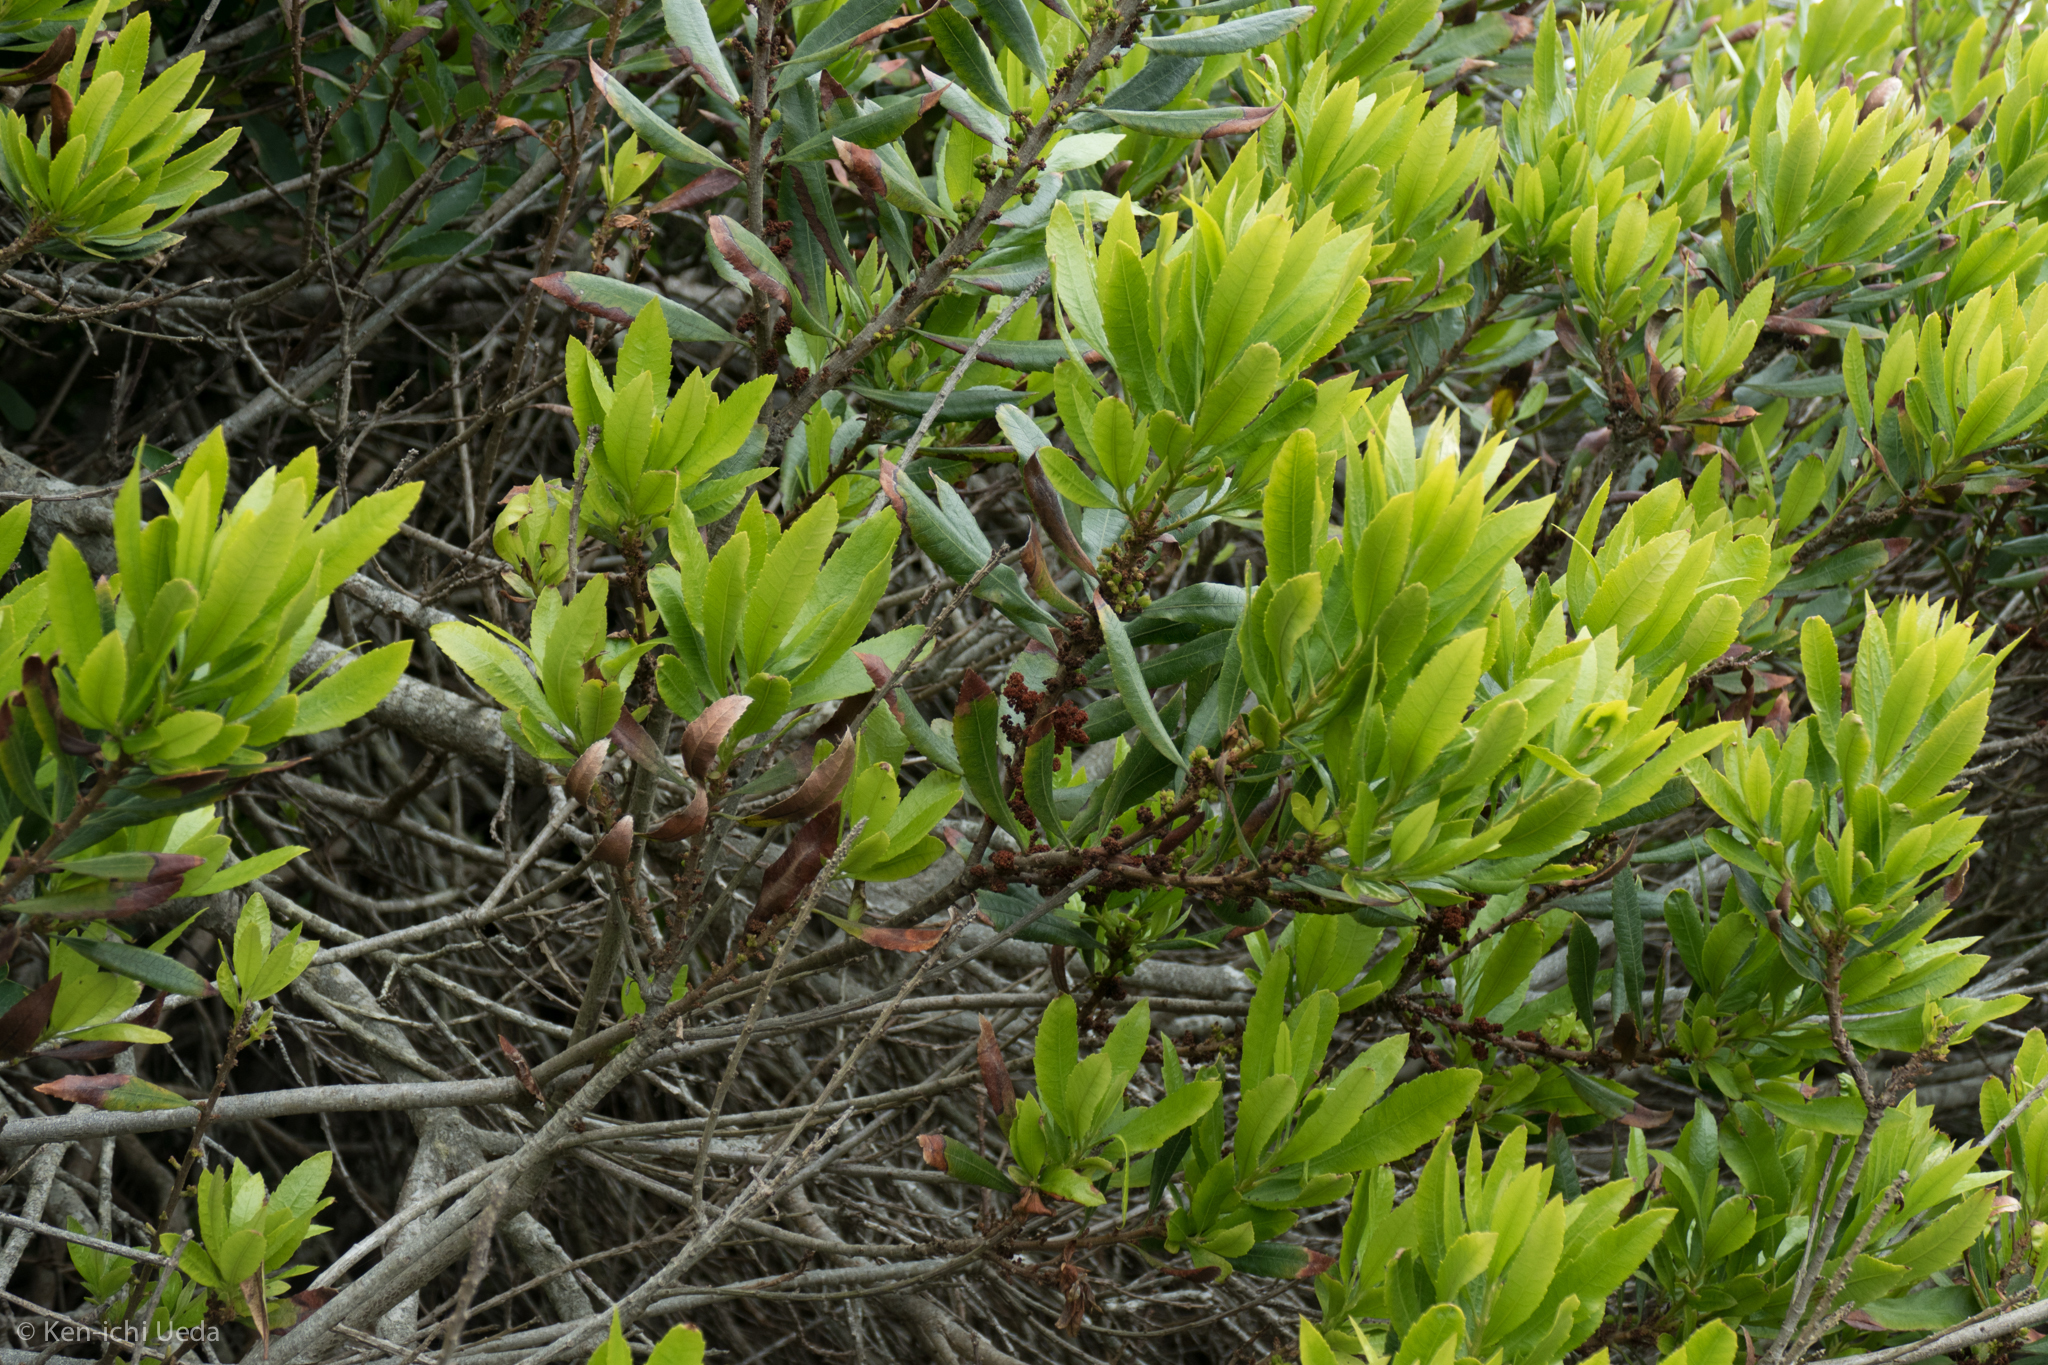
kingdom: Plantae
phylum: Tracheophyta
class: Magnoliopsida
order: Fagales
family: Myricaceae
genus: Morella
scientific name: Morella californica
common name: California wax-myrtle
